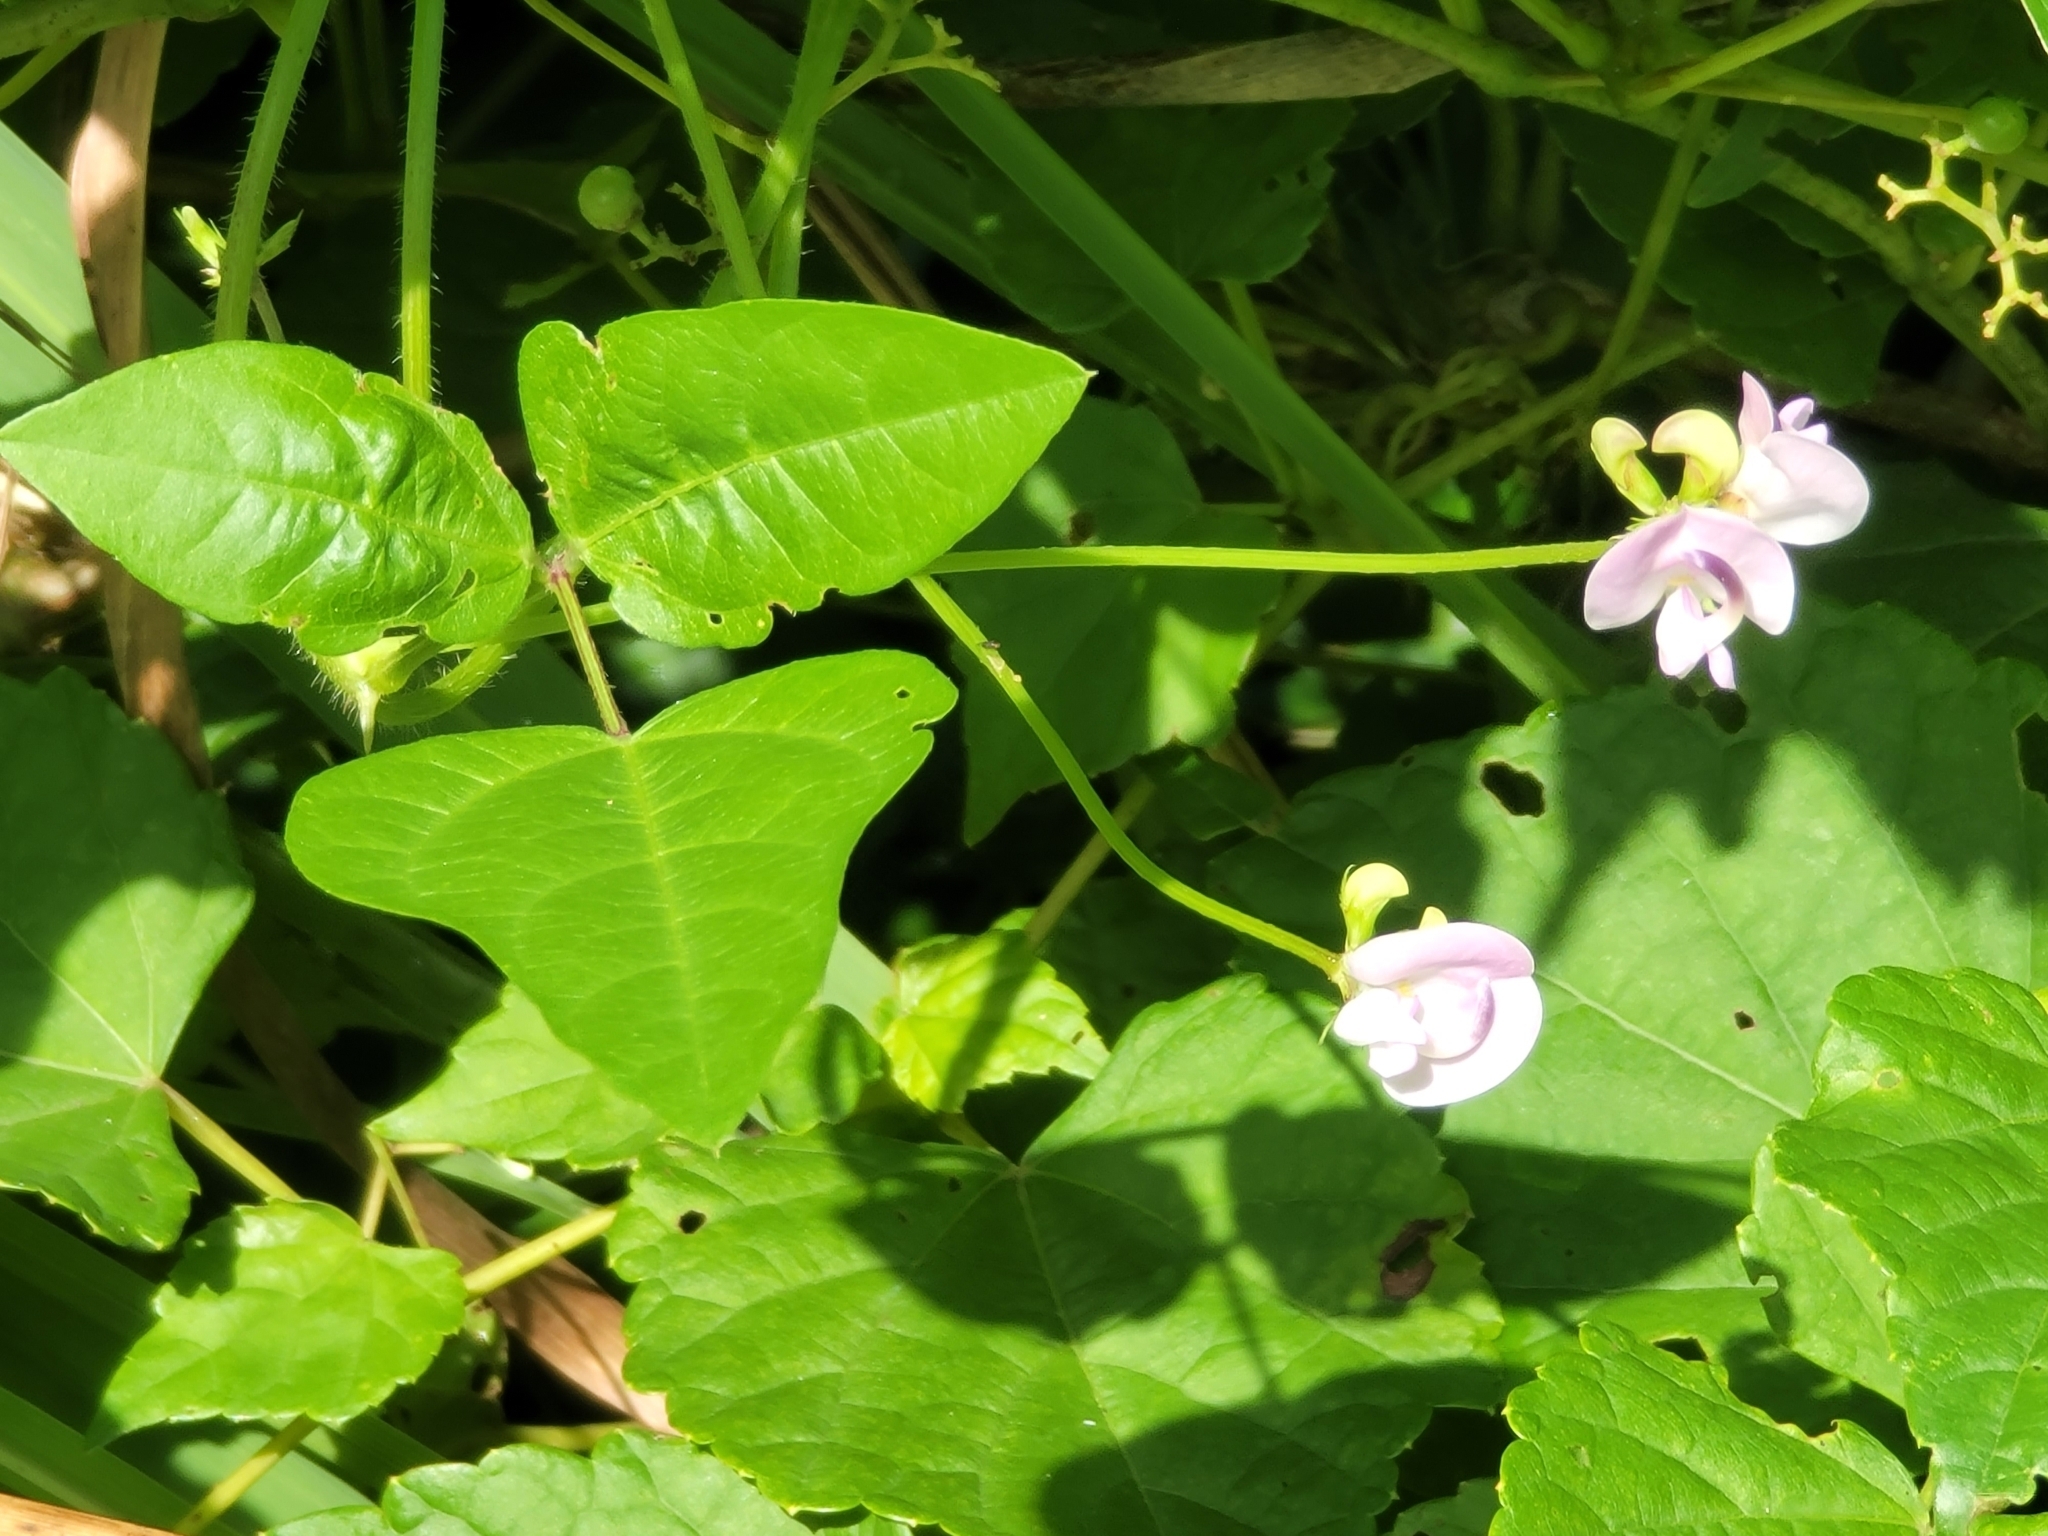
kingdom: Plantae
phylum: Tracheophyta
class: Magnoliopsida
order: Fabales
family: Fabaceae
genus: Strophostyles
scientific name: Strophostyles helvola
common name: Trailing wild bean
